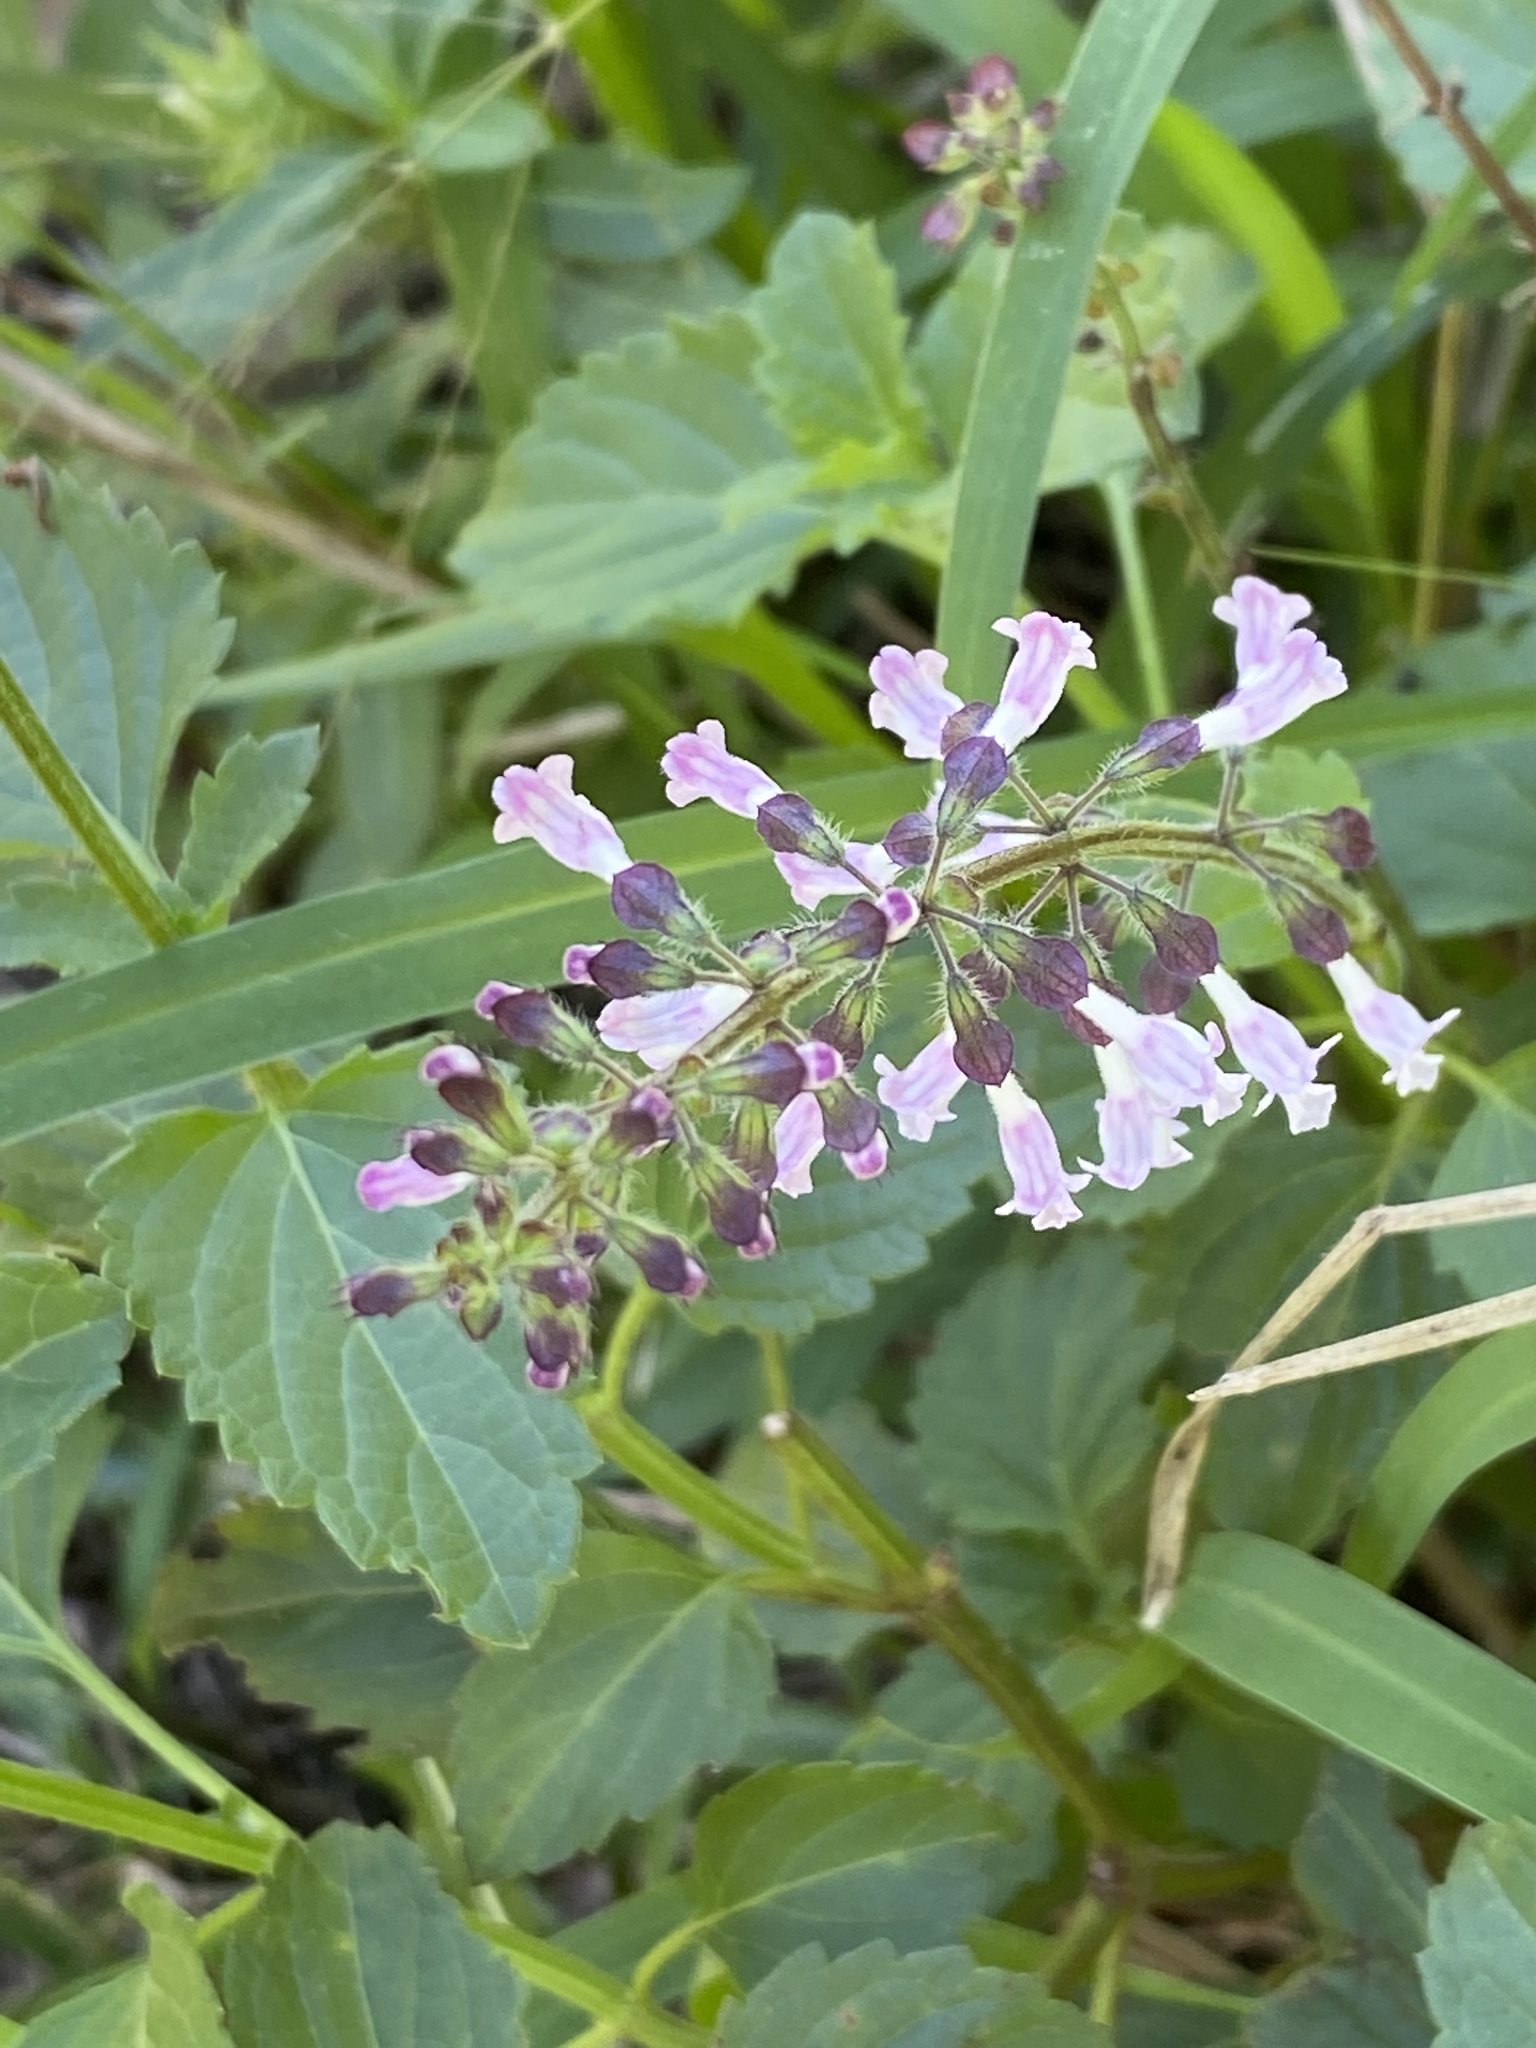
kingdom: Plantae
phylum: Tracheophyta
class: Magnoliopsida
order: Lamiales
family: Lamiaceae
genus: Orthosiphon
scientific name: Orthosiphon thymiflorus
